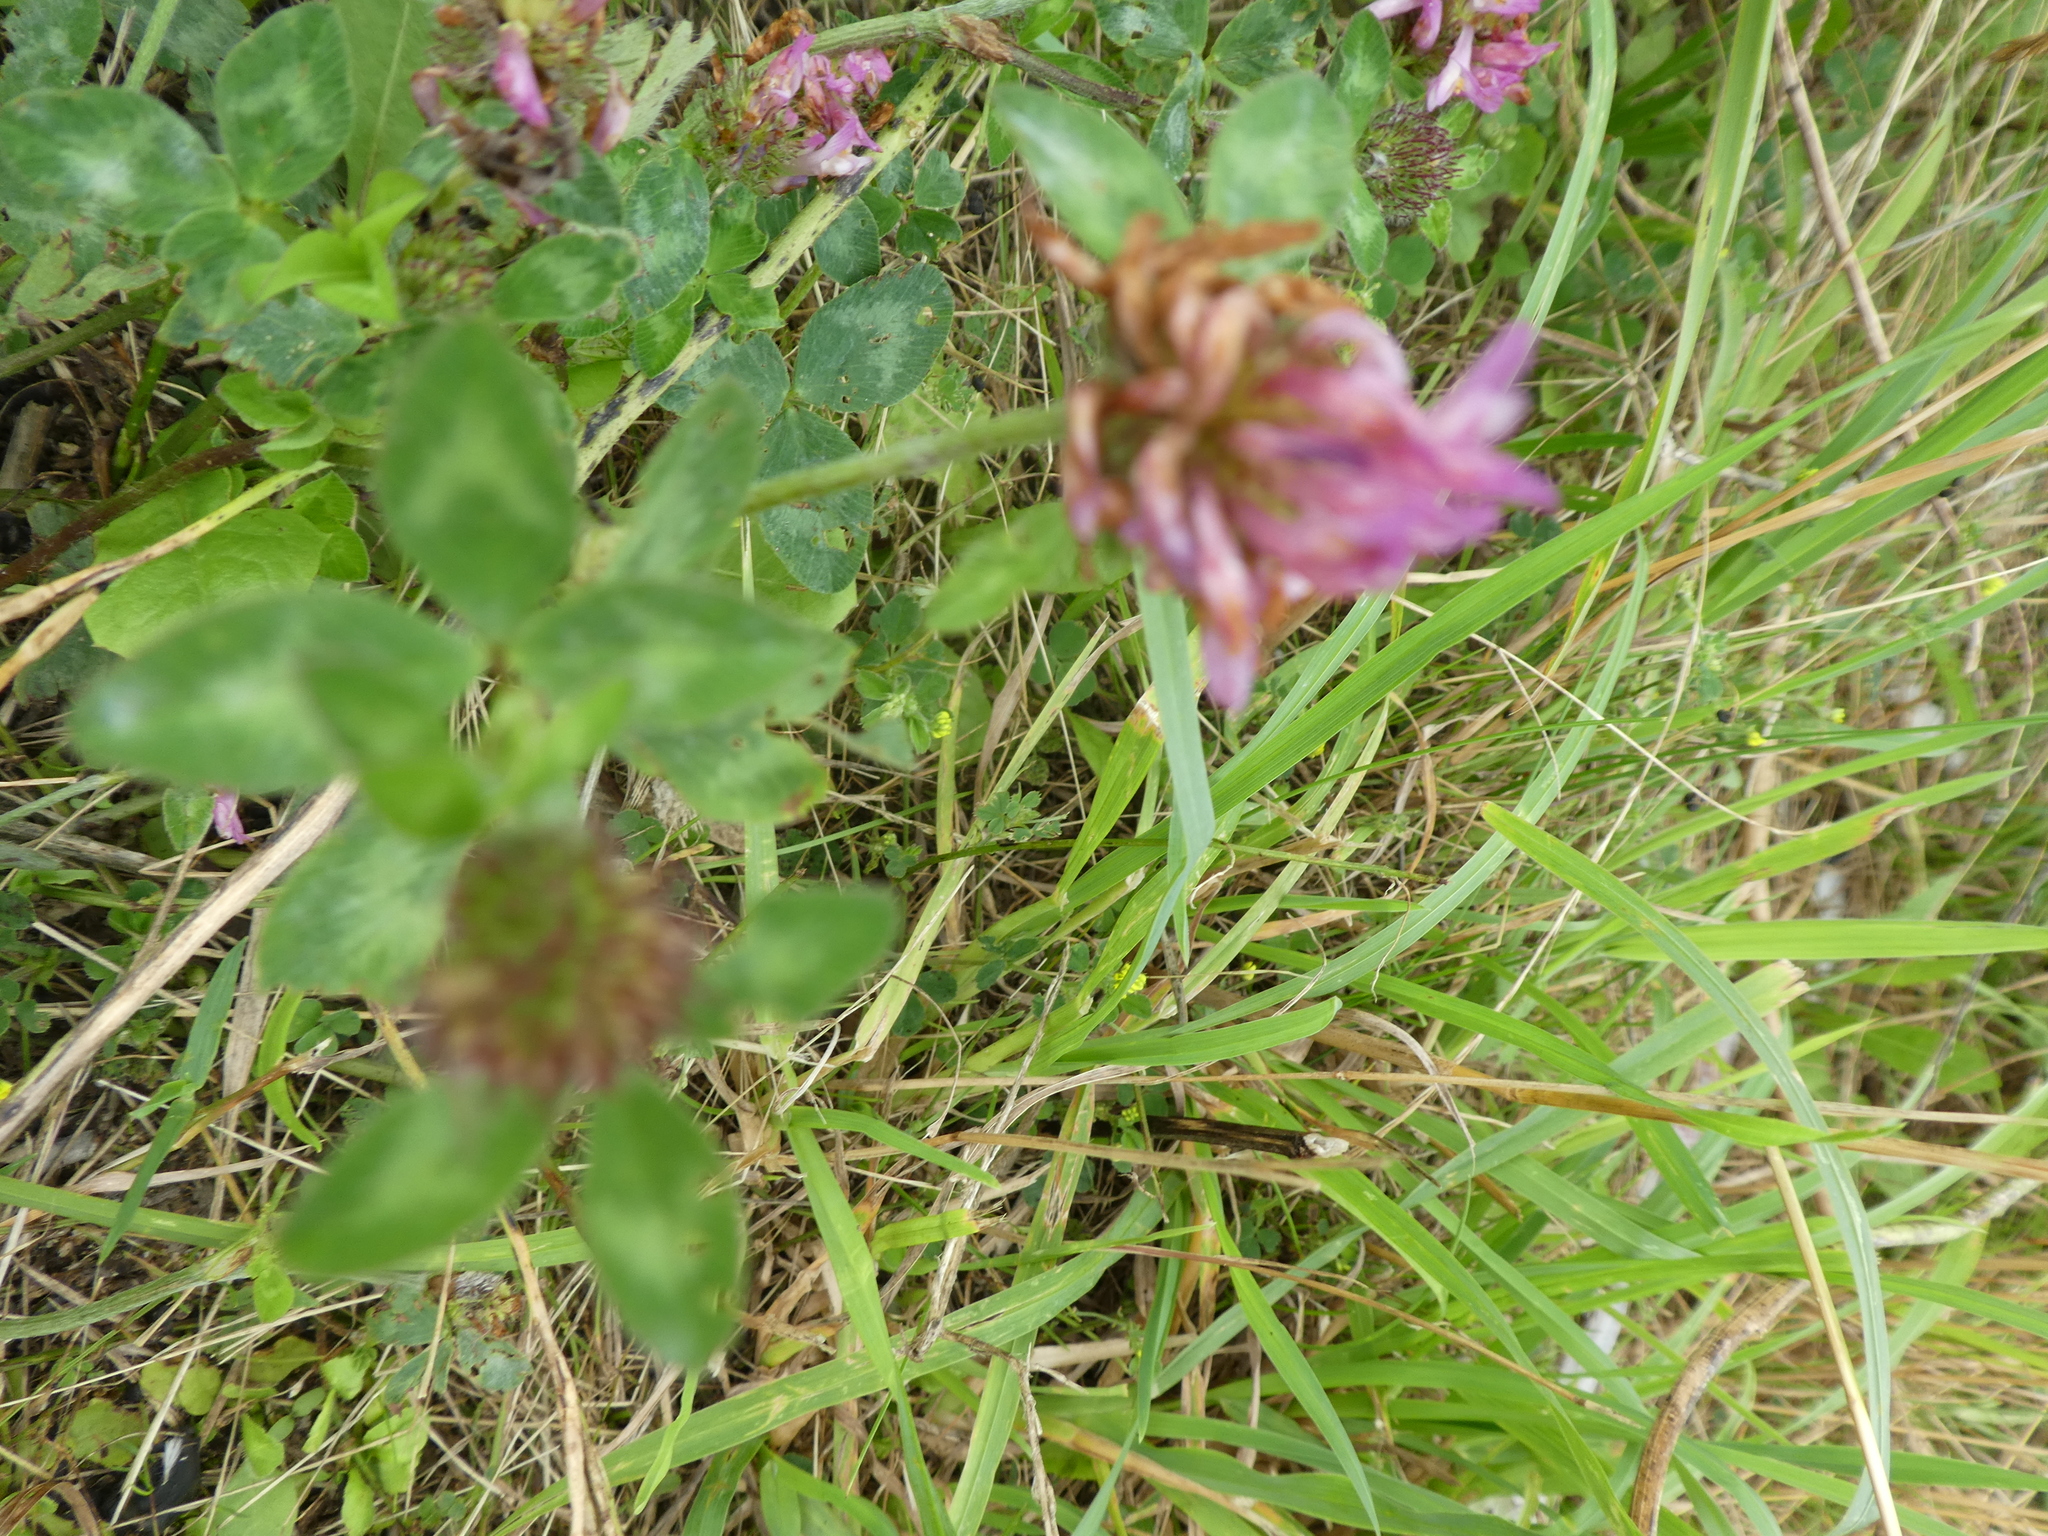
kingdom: Plantae
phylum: Tracheophyta
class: Magnoliopsida
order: Fabales
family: Fabaceae
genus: Trifolium
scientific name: Trifolium pratense
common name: Red clover
